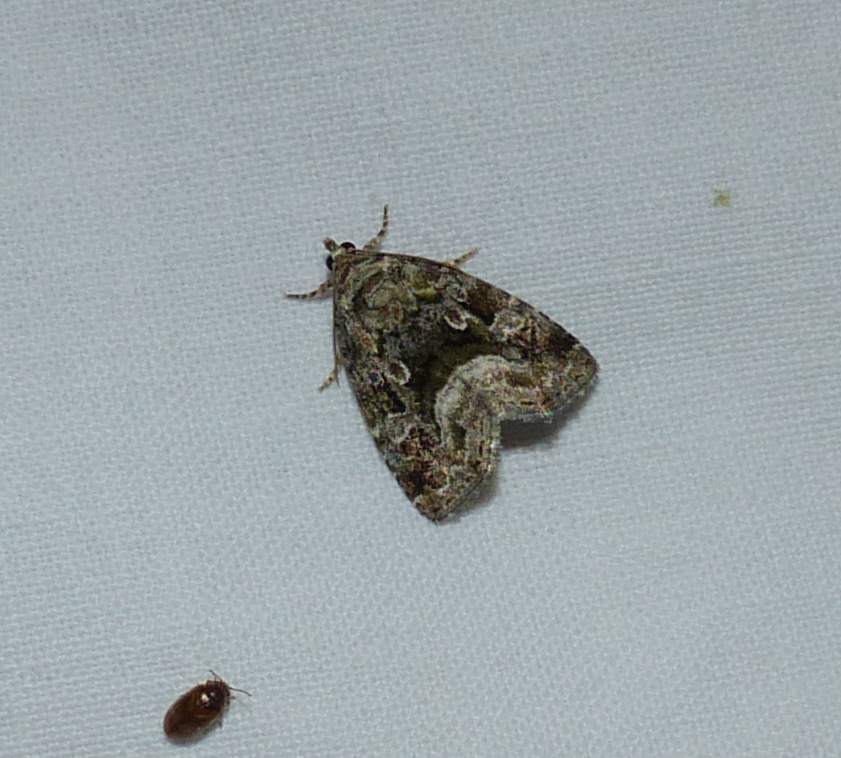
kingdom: Animalia
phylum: Arthropoda
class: Insecta
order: Lepidoptera
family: Noctuidae
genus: Protodeltote
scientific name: Protodeltote muscosula
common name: Large mossy glyph
